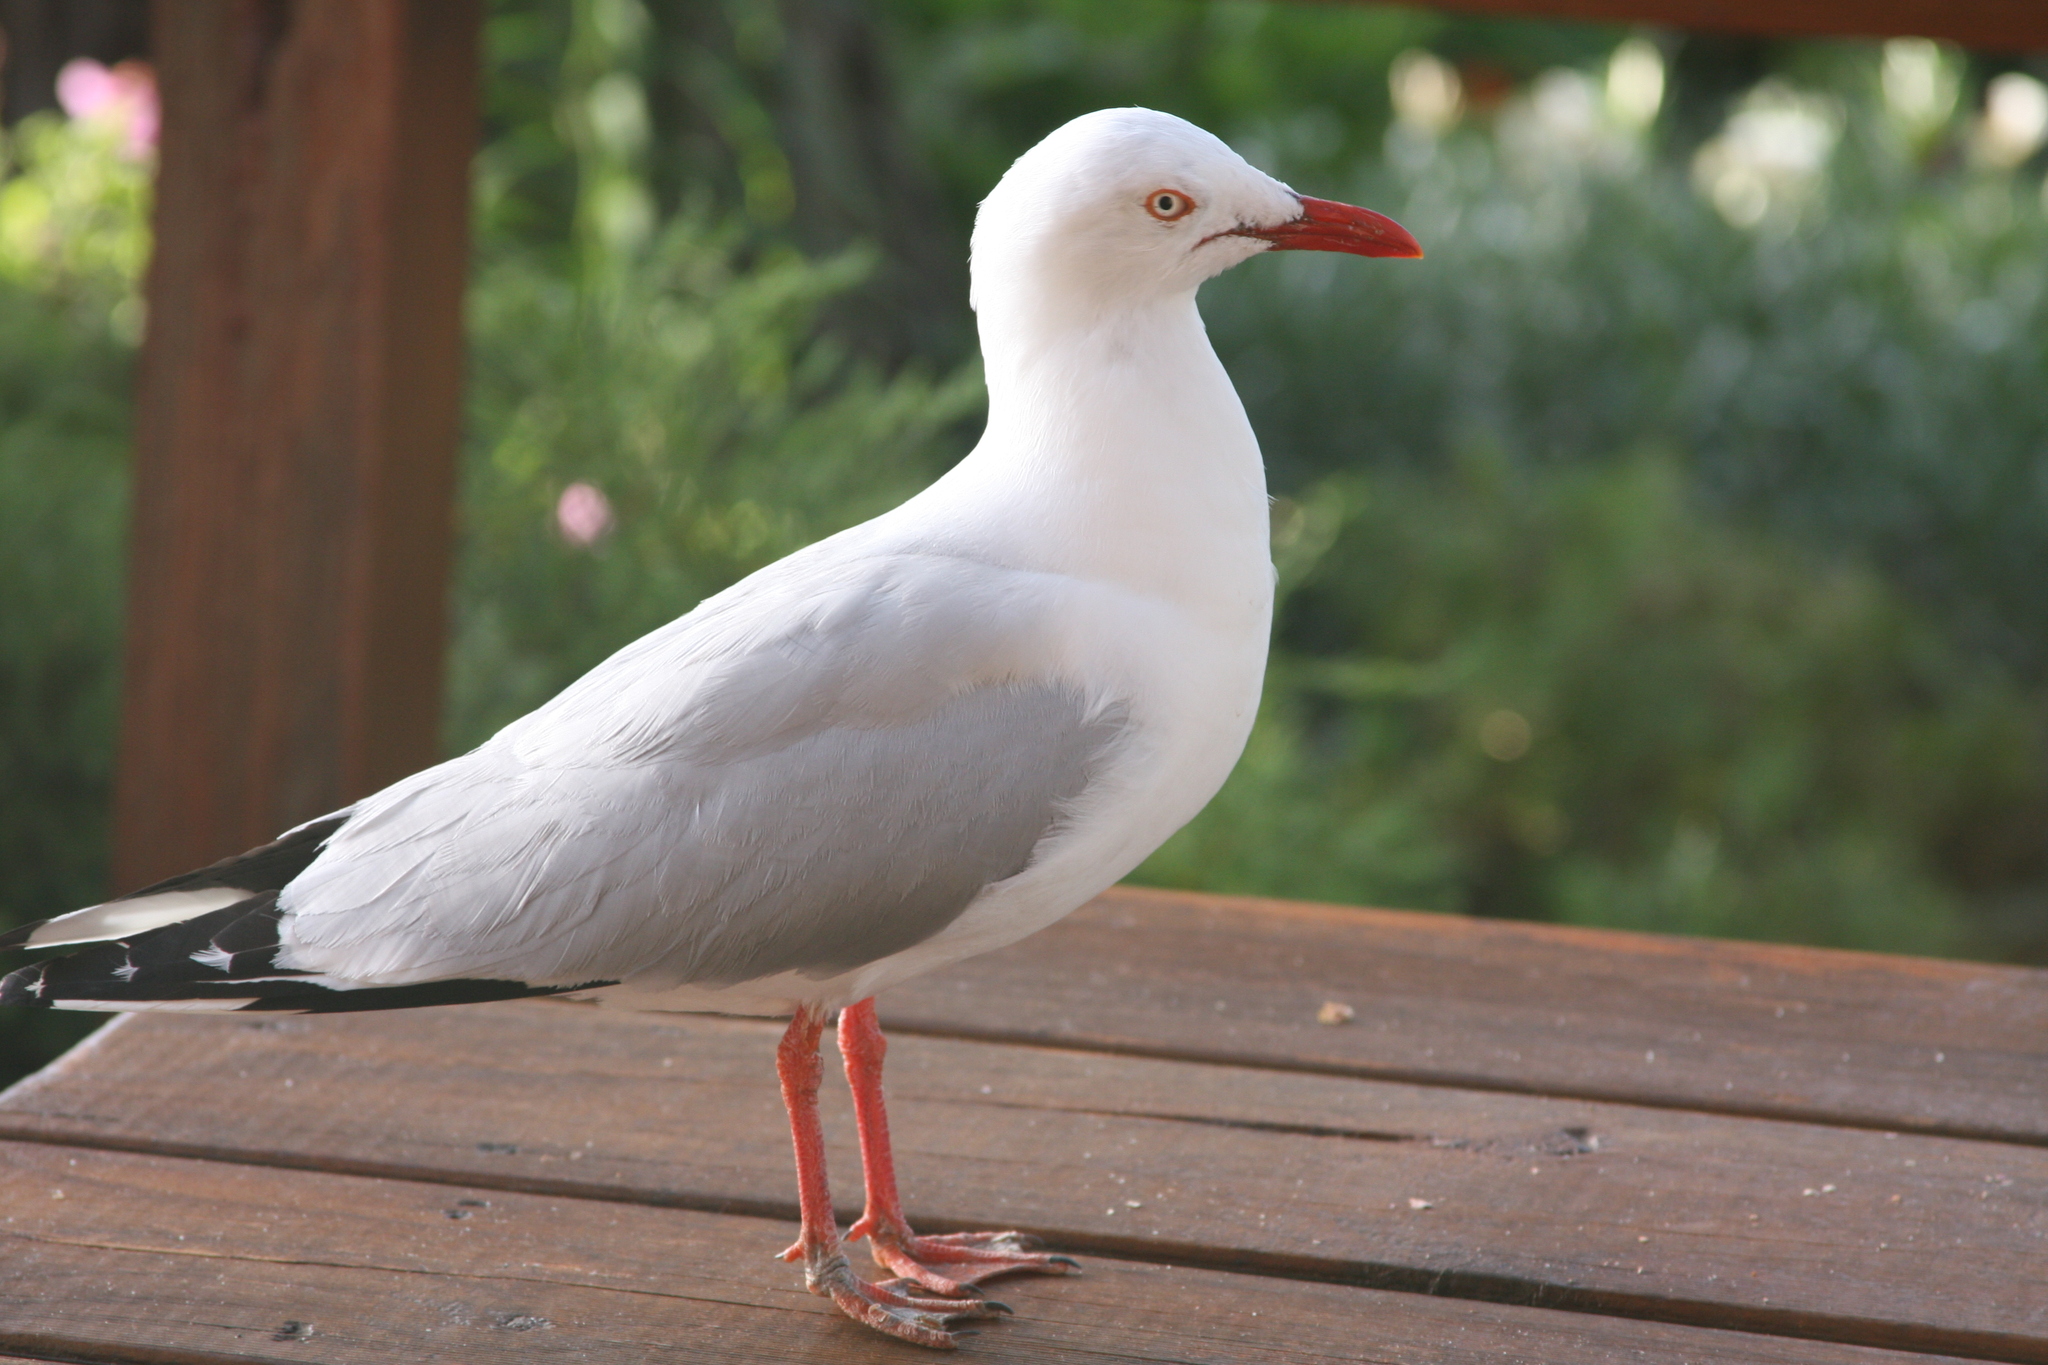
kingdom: Animalia
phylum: Chordata
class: Aves
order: Charadriiformes
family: Laridae
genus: Chroicocephalus
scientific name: Chroicocephalus novaehollandiae
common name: Silver gull
